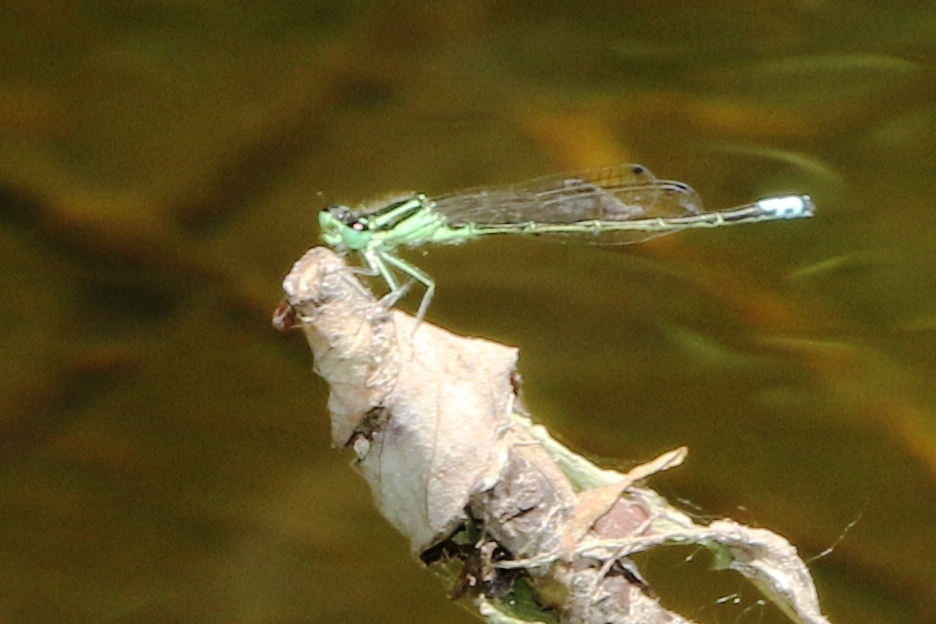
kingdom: Animalia
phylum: Arthropoda
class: Insecta
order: Odonata
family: Coenagrionidae
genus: Ischnura
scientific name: Ischnura verticalis
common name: Eastern forktail
